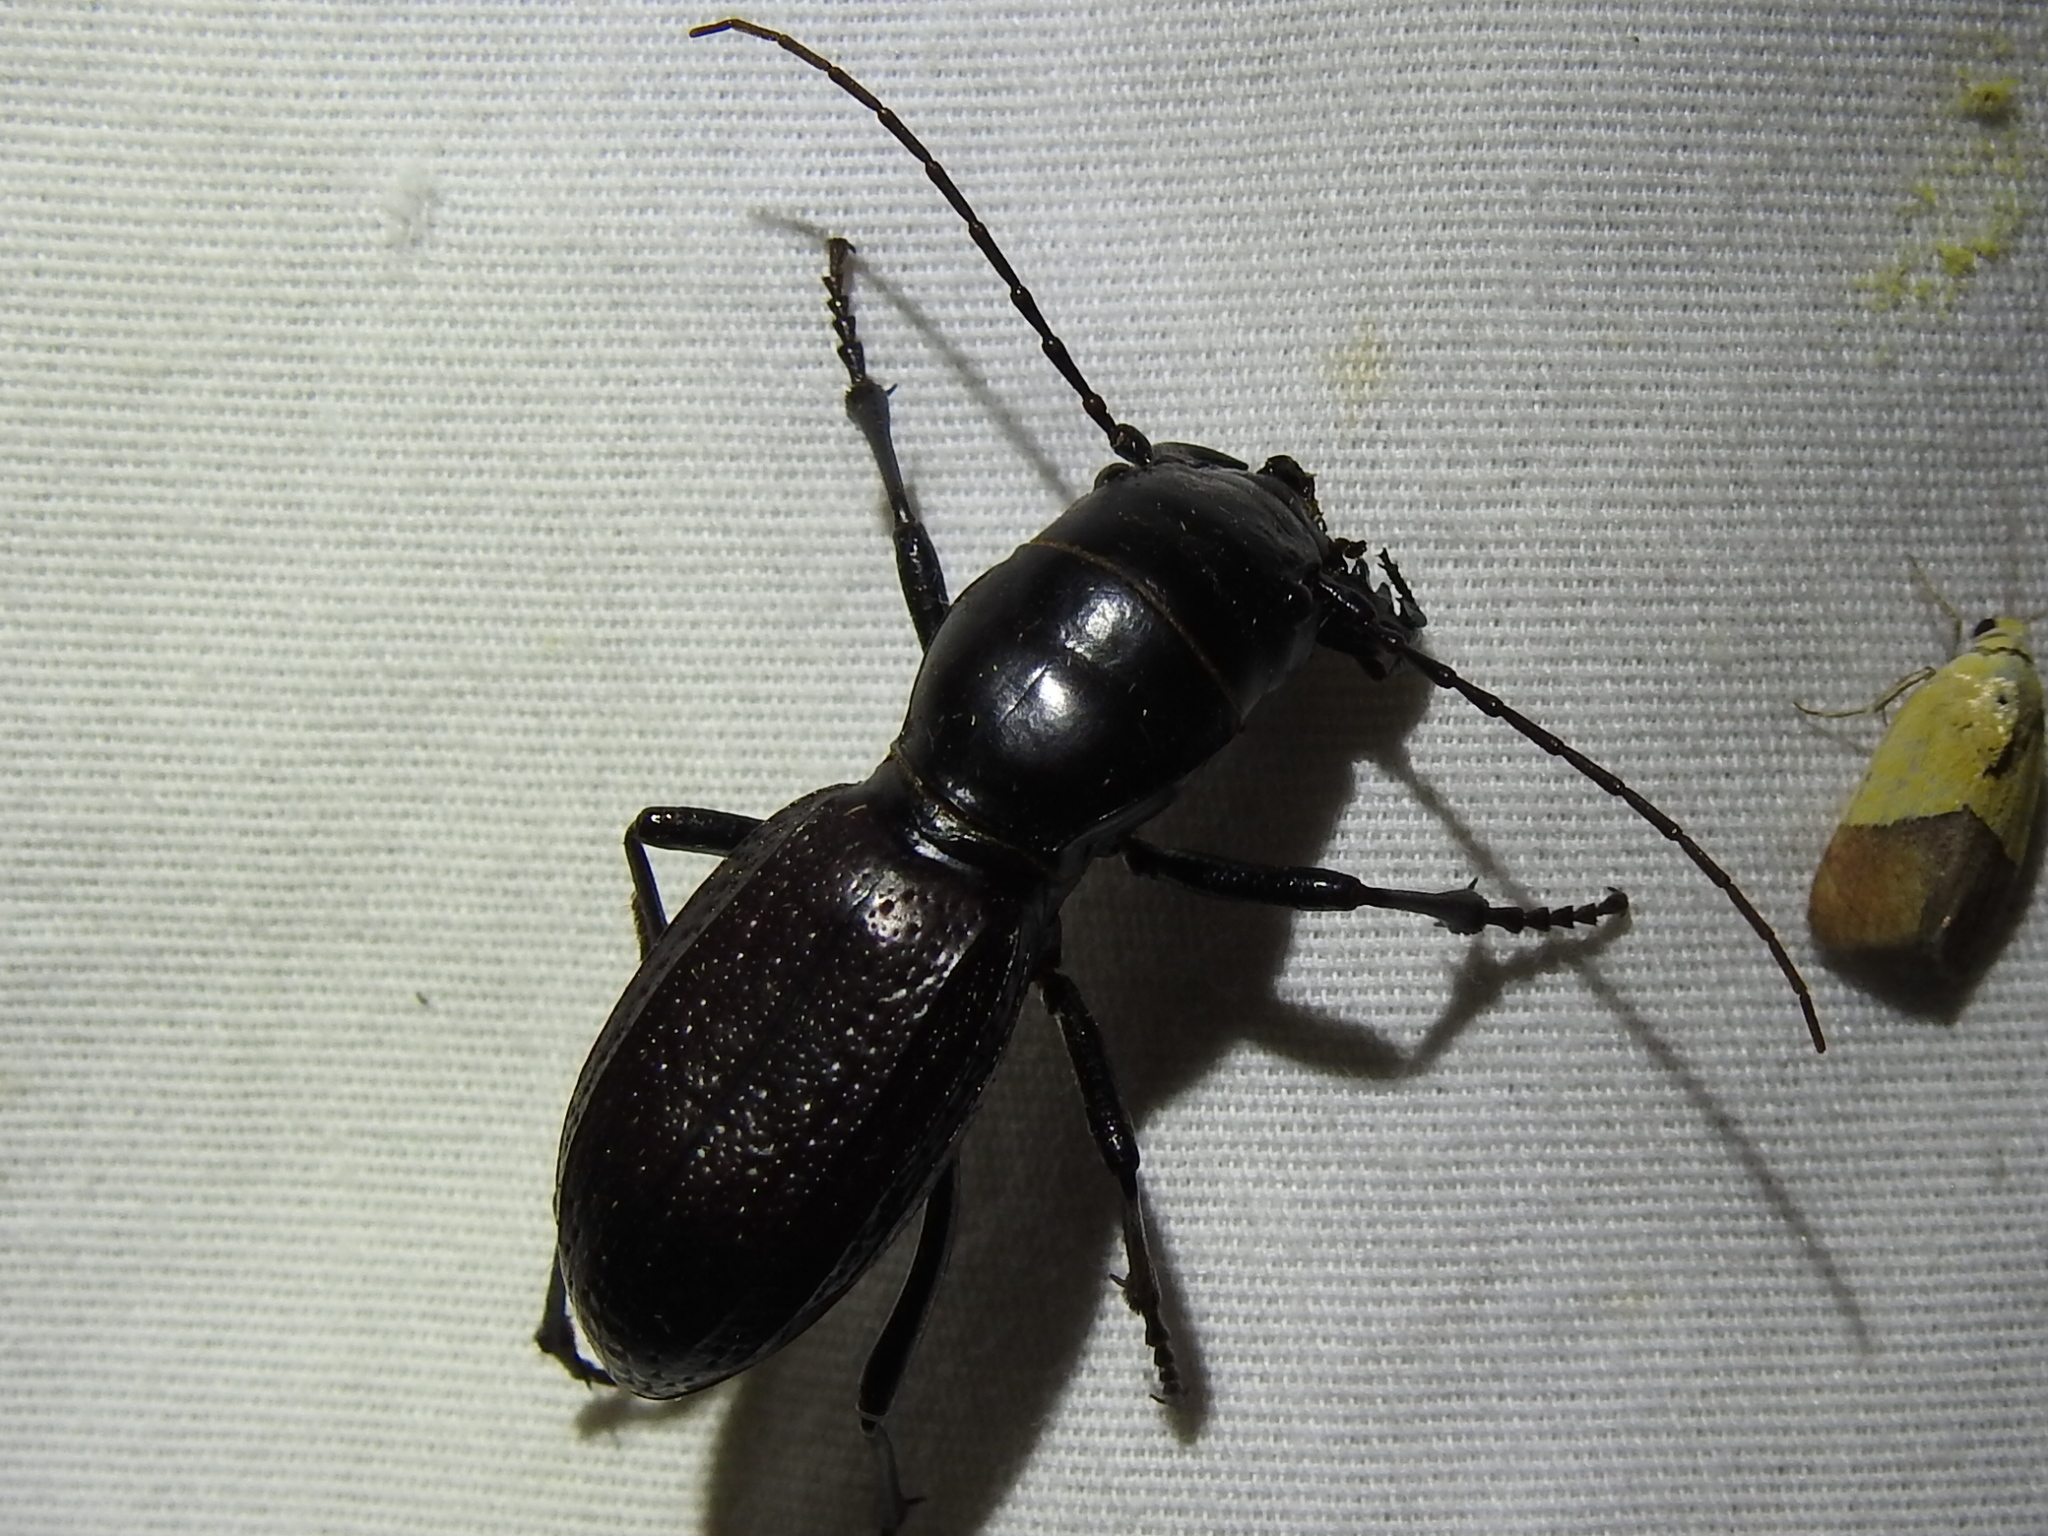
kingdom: Animalia
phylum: Arthropoda
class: Insecta
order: Coleoptera
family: Carabidae
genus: Amblycheila
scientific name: Amblycheila cylindriformis
